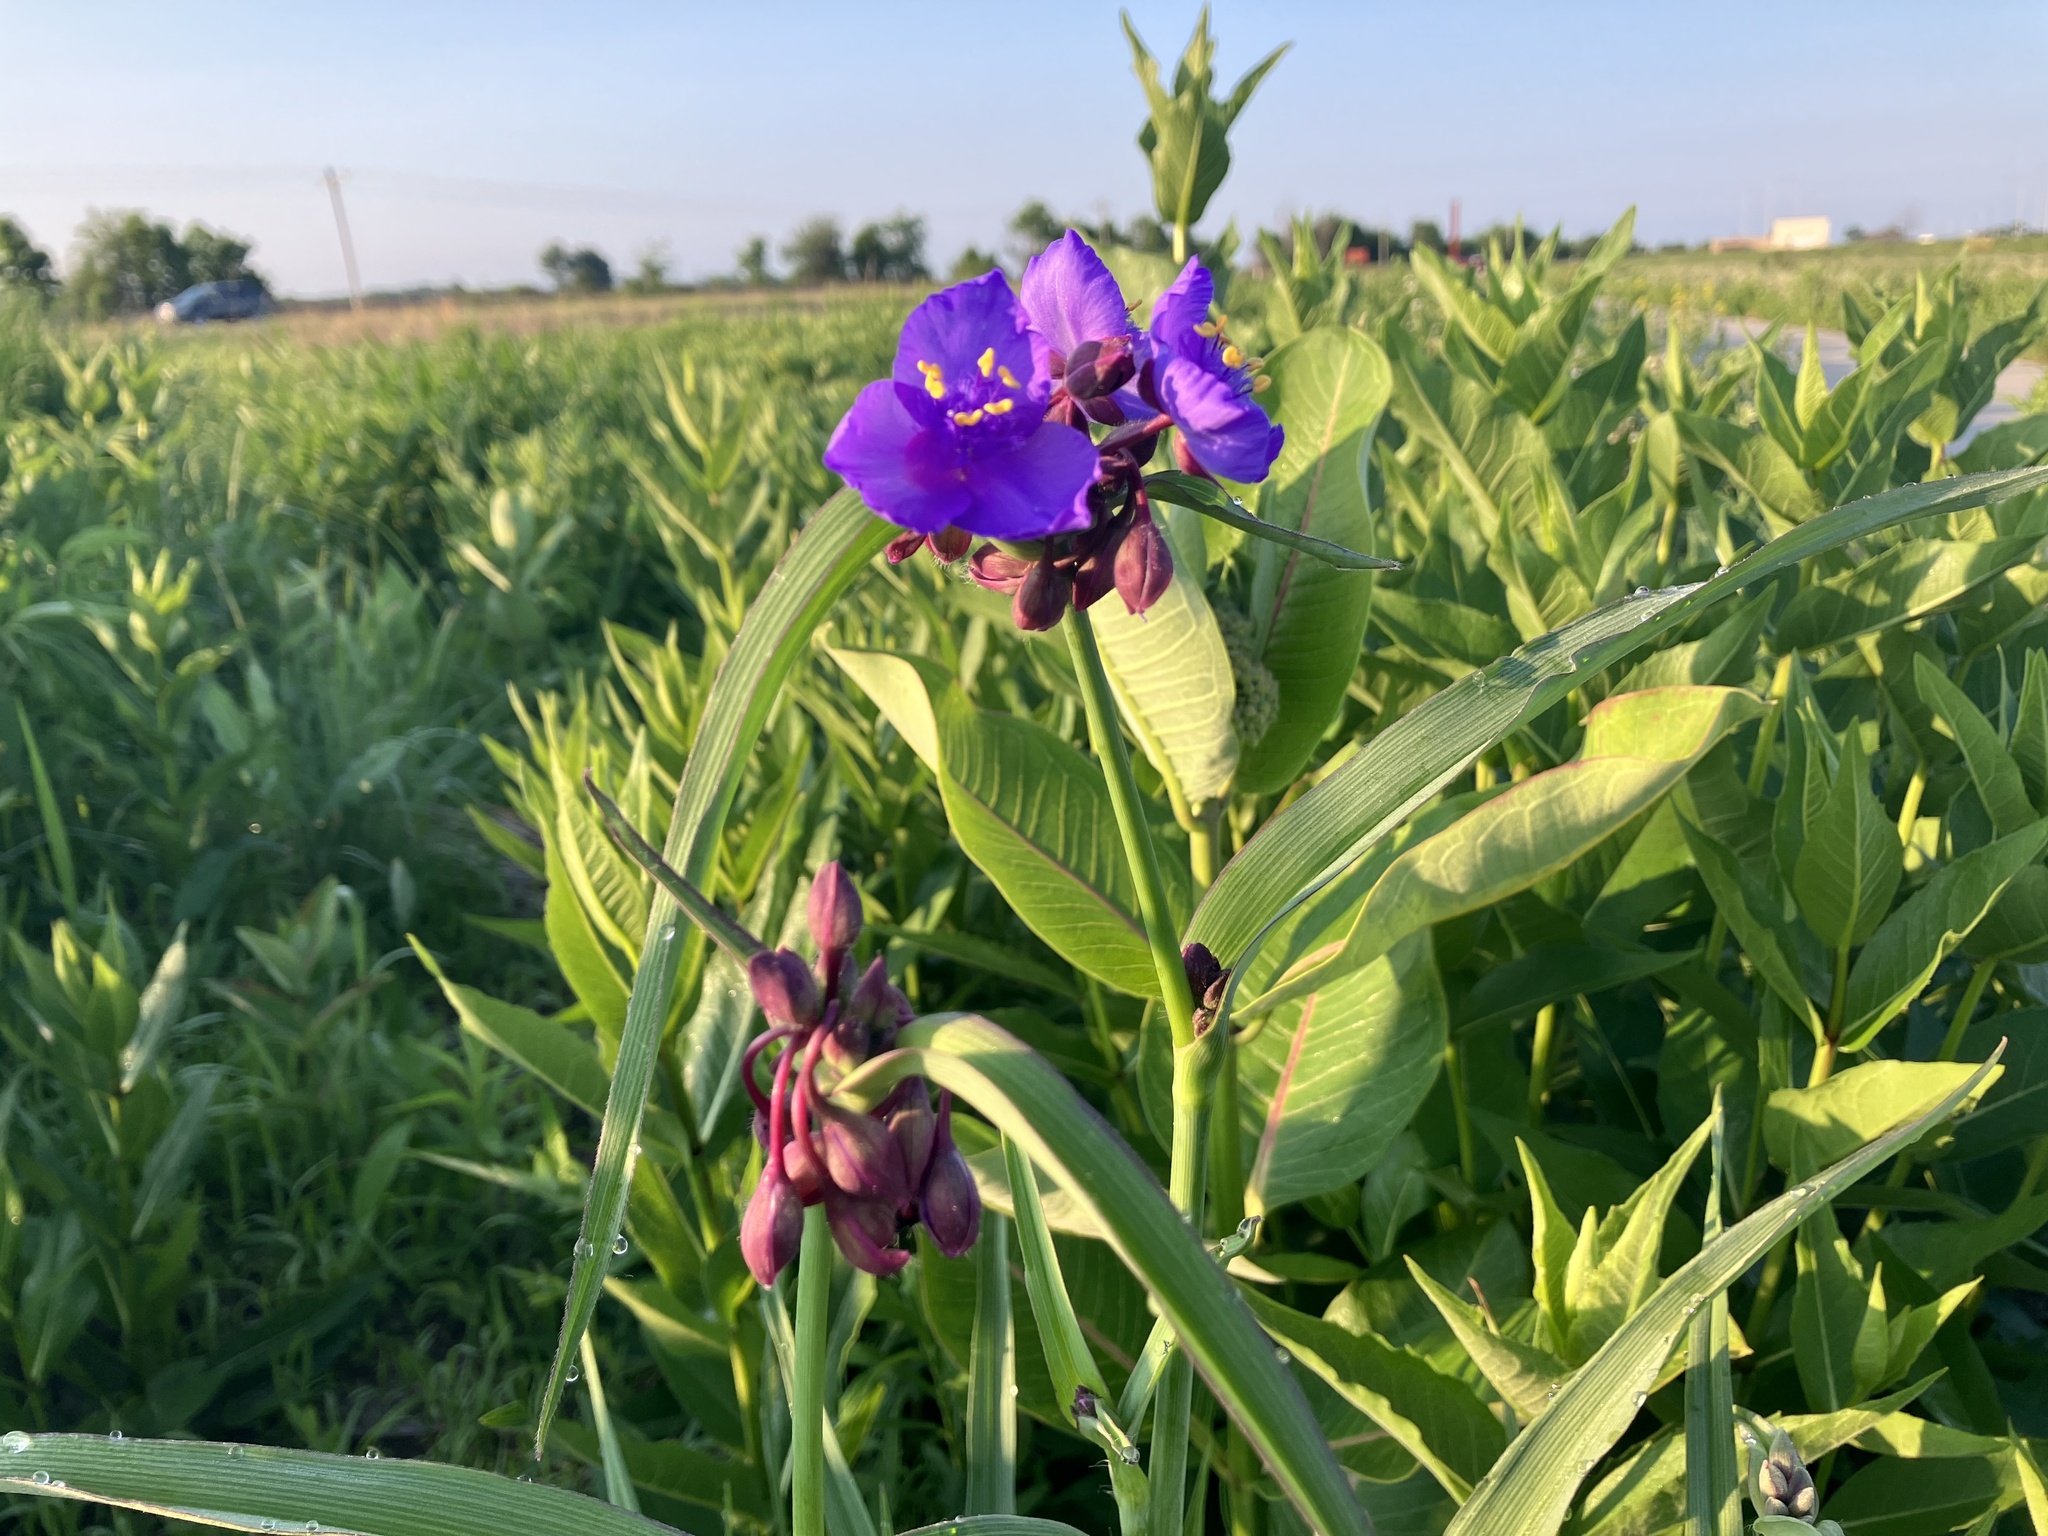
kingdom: Plantae
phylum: Tracheophyta
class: Liliopsida
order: Commelinales
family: Commelinaceae
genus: Tradescantia
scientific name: Tradescantia ohiensis
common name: Ohio spiderwort
